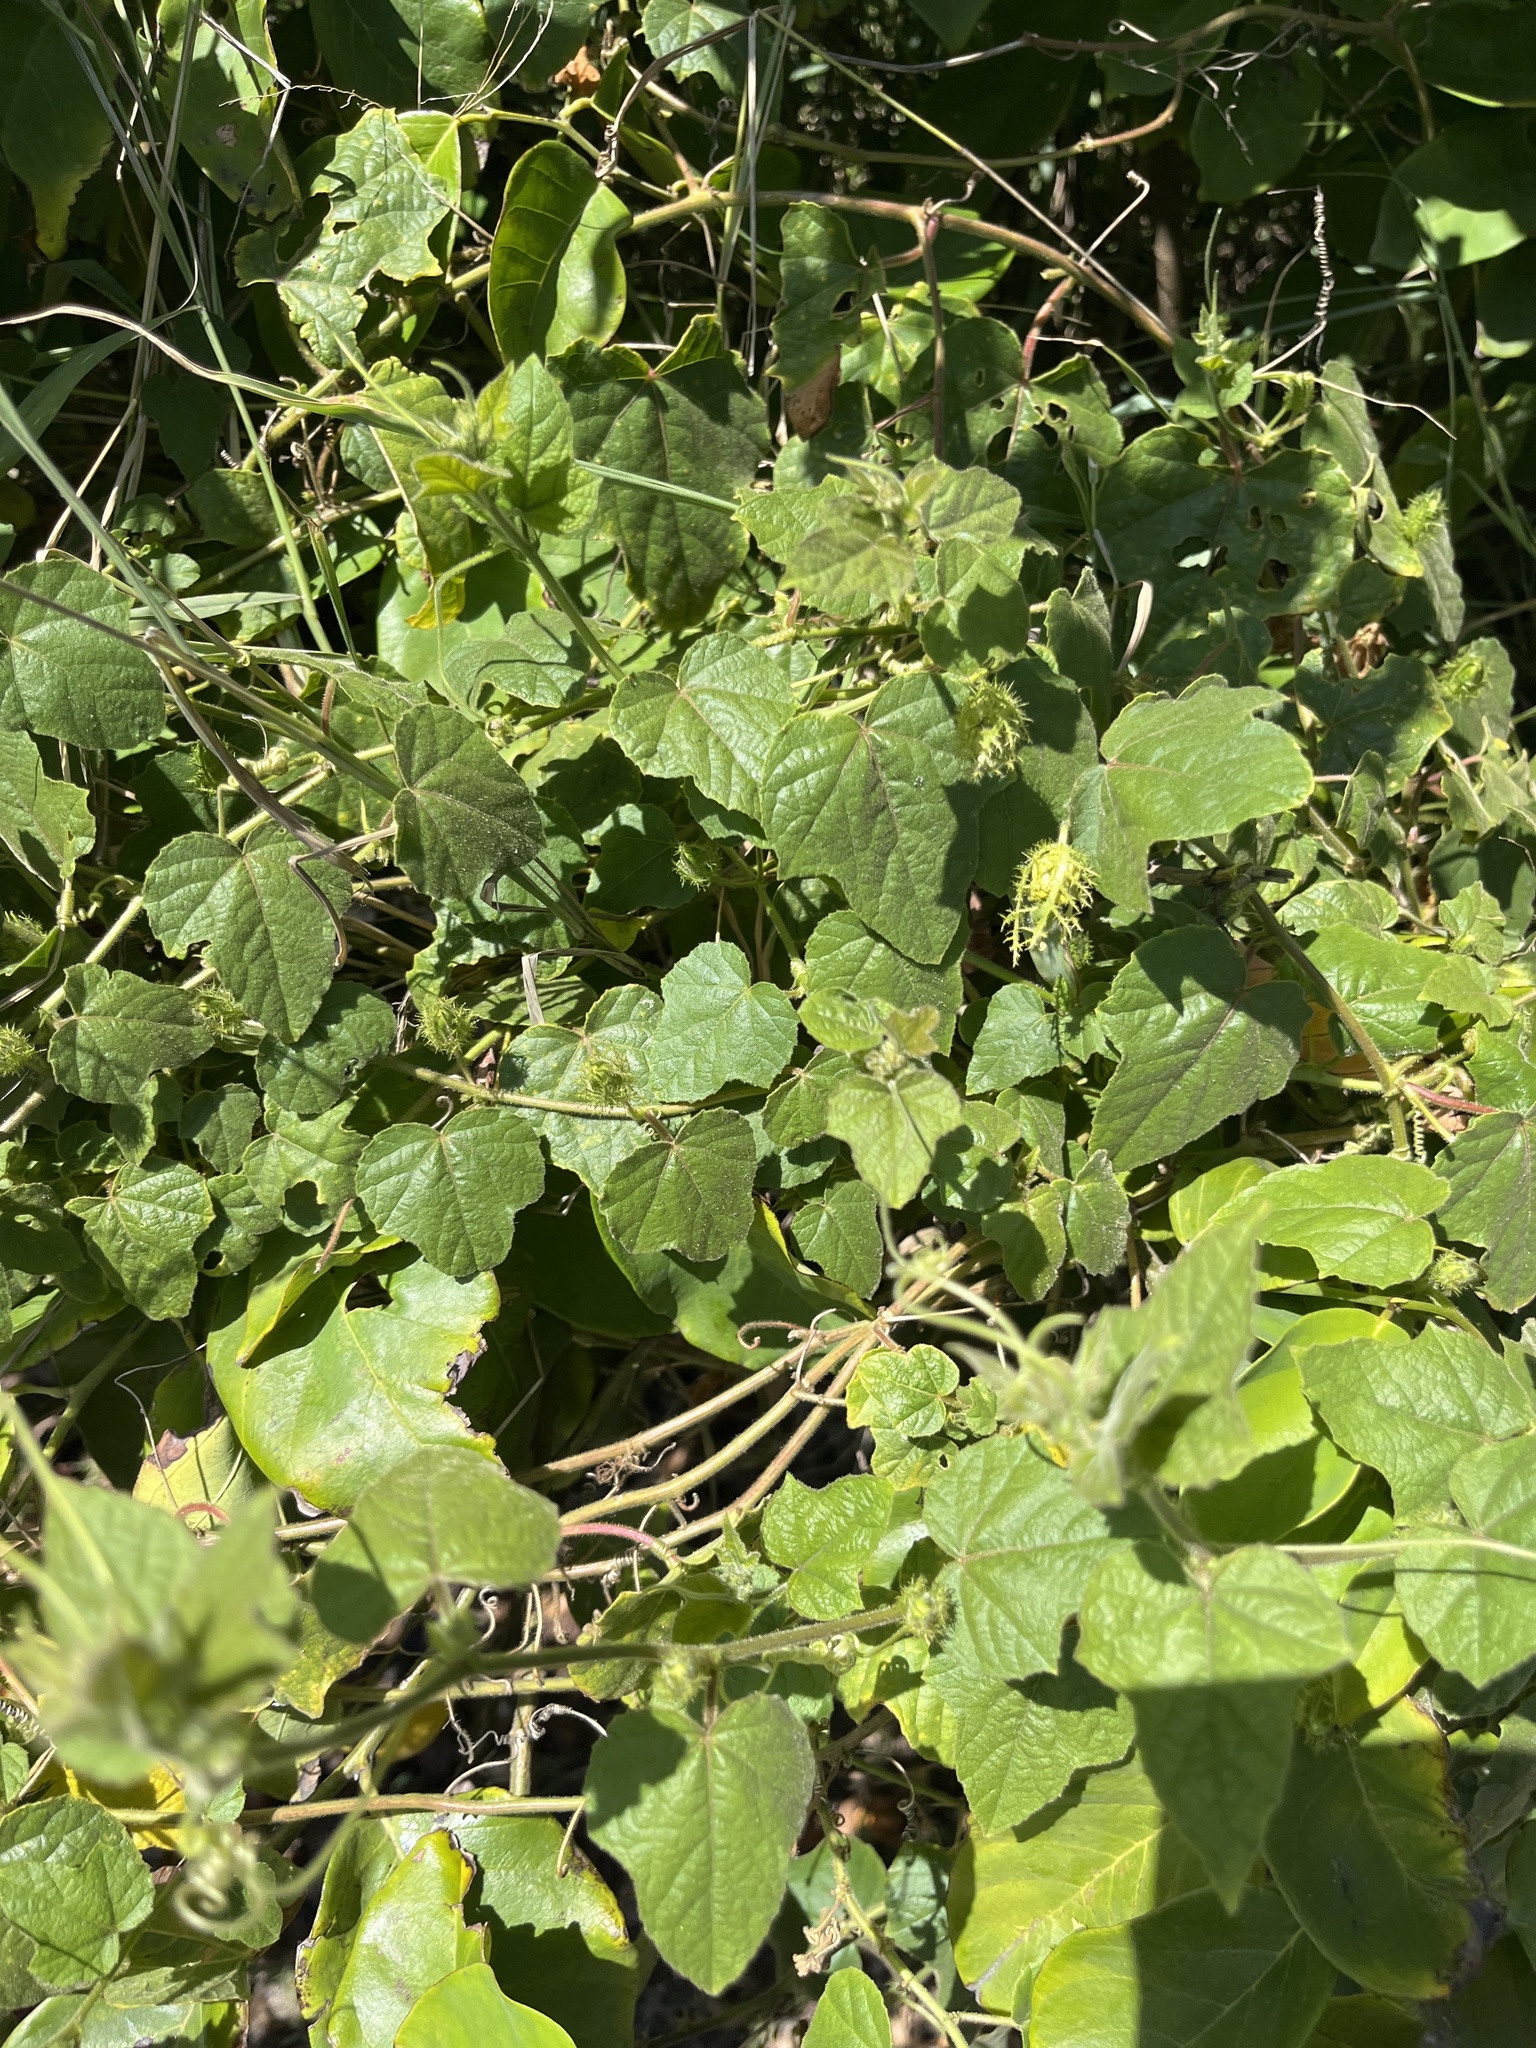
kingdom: Plantae
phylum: Tracheophyta
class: Magnoliopsida
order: Malpighiales
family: Passifloraceae
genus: Passiflora
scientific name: Passiflora foetida
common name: Fetid passionflower
